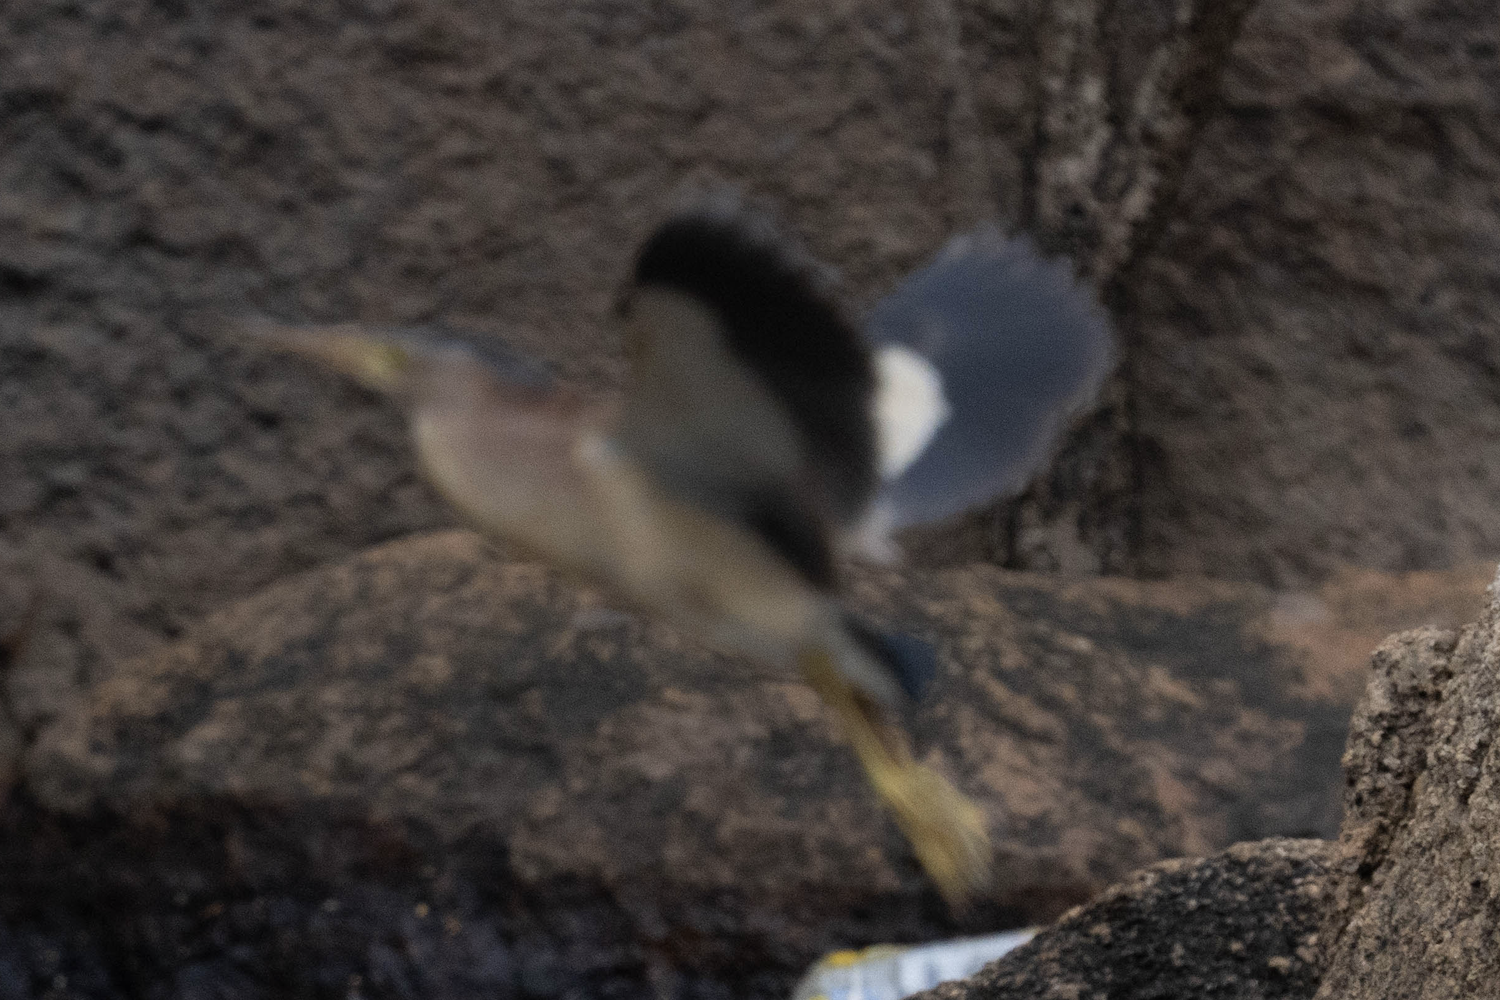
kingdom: Animalia
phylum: Chordata
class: Aves
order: Pelecaniformes
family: Ardeidae
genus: Ixobrychus
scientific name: Ixobrychus sinensis
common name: Yellow bittern
